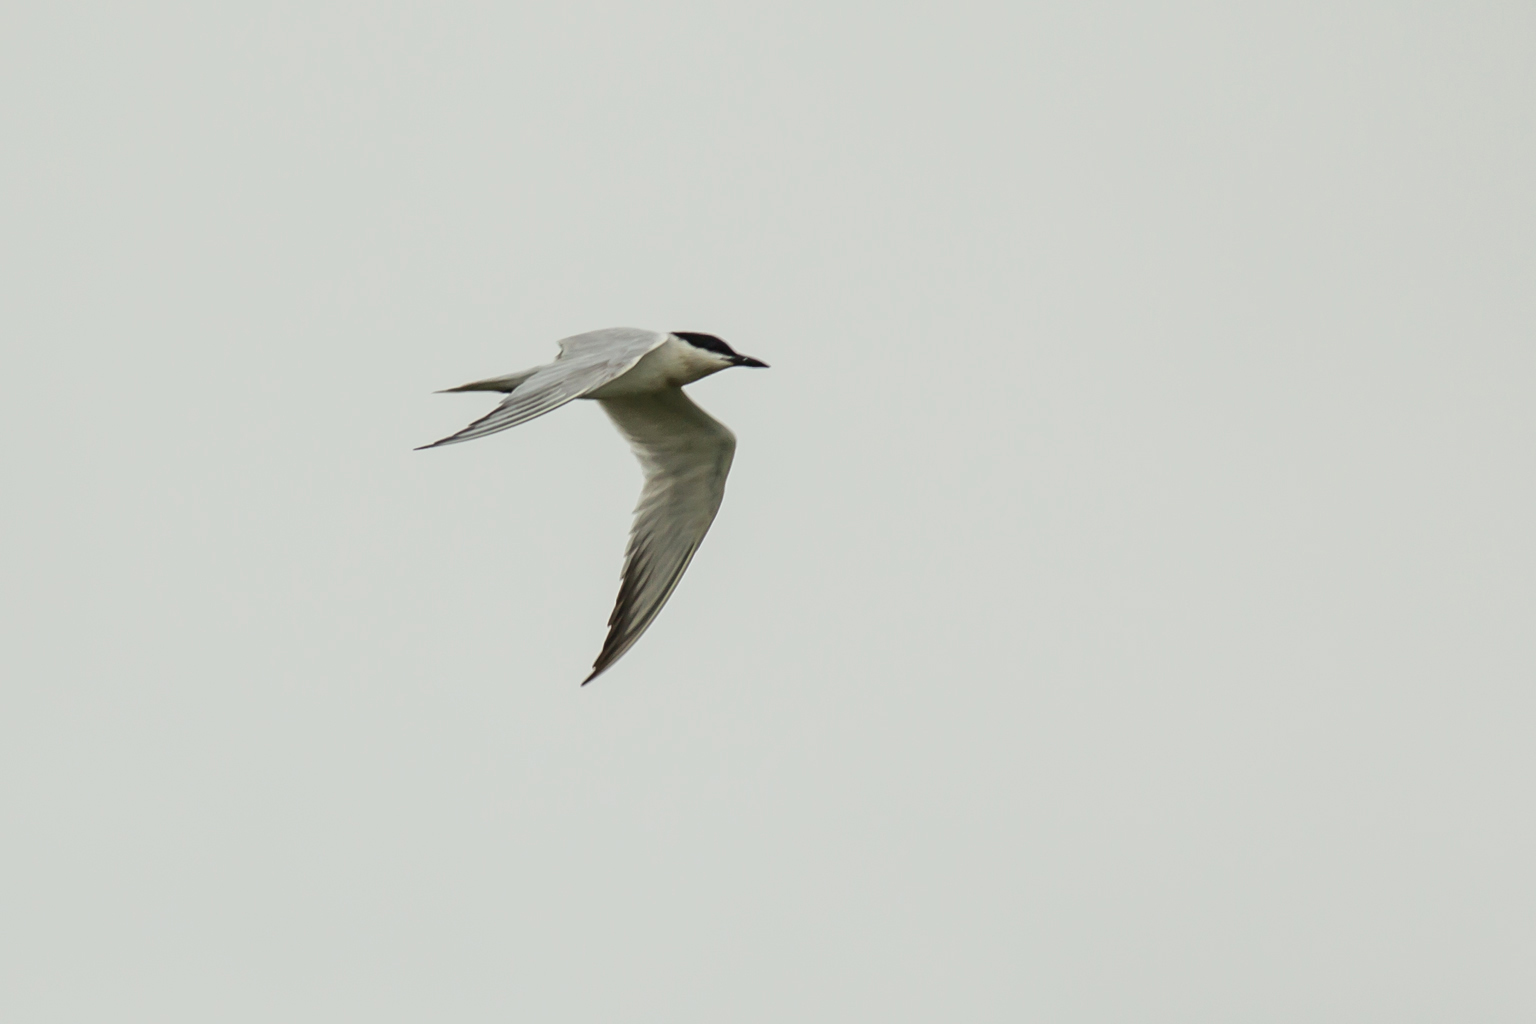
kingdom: Animalia
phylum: Chordata
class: Aves
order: Charadriiformes
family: Laridae
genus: Gelochelidon
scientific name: Gelochelidon nilotica
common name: Gull-billed tern
